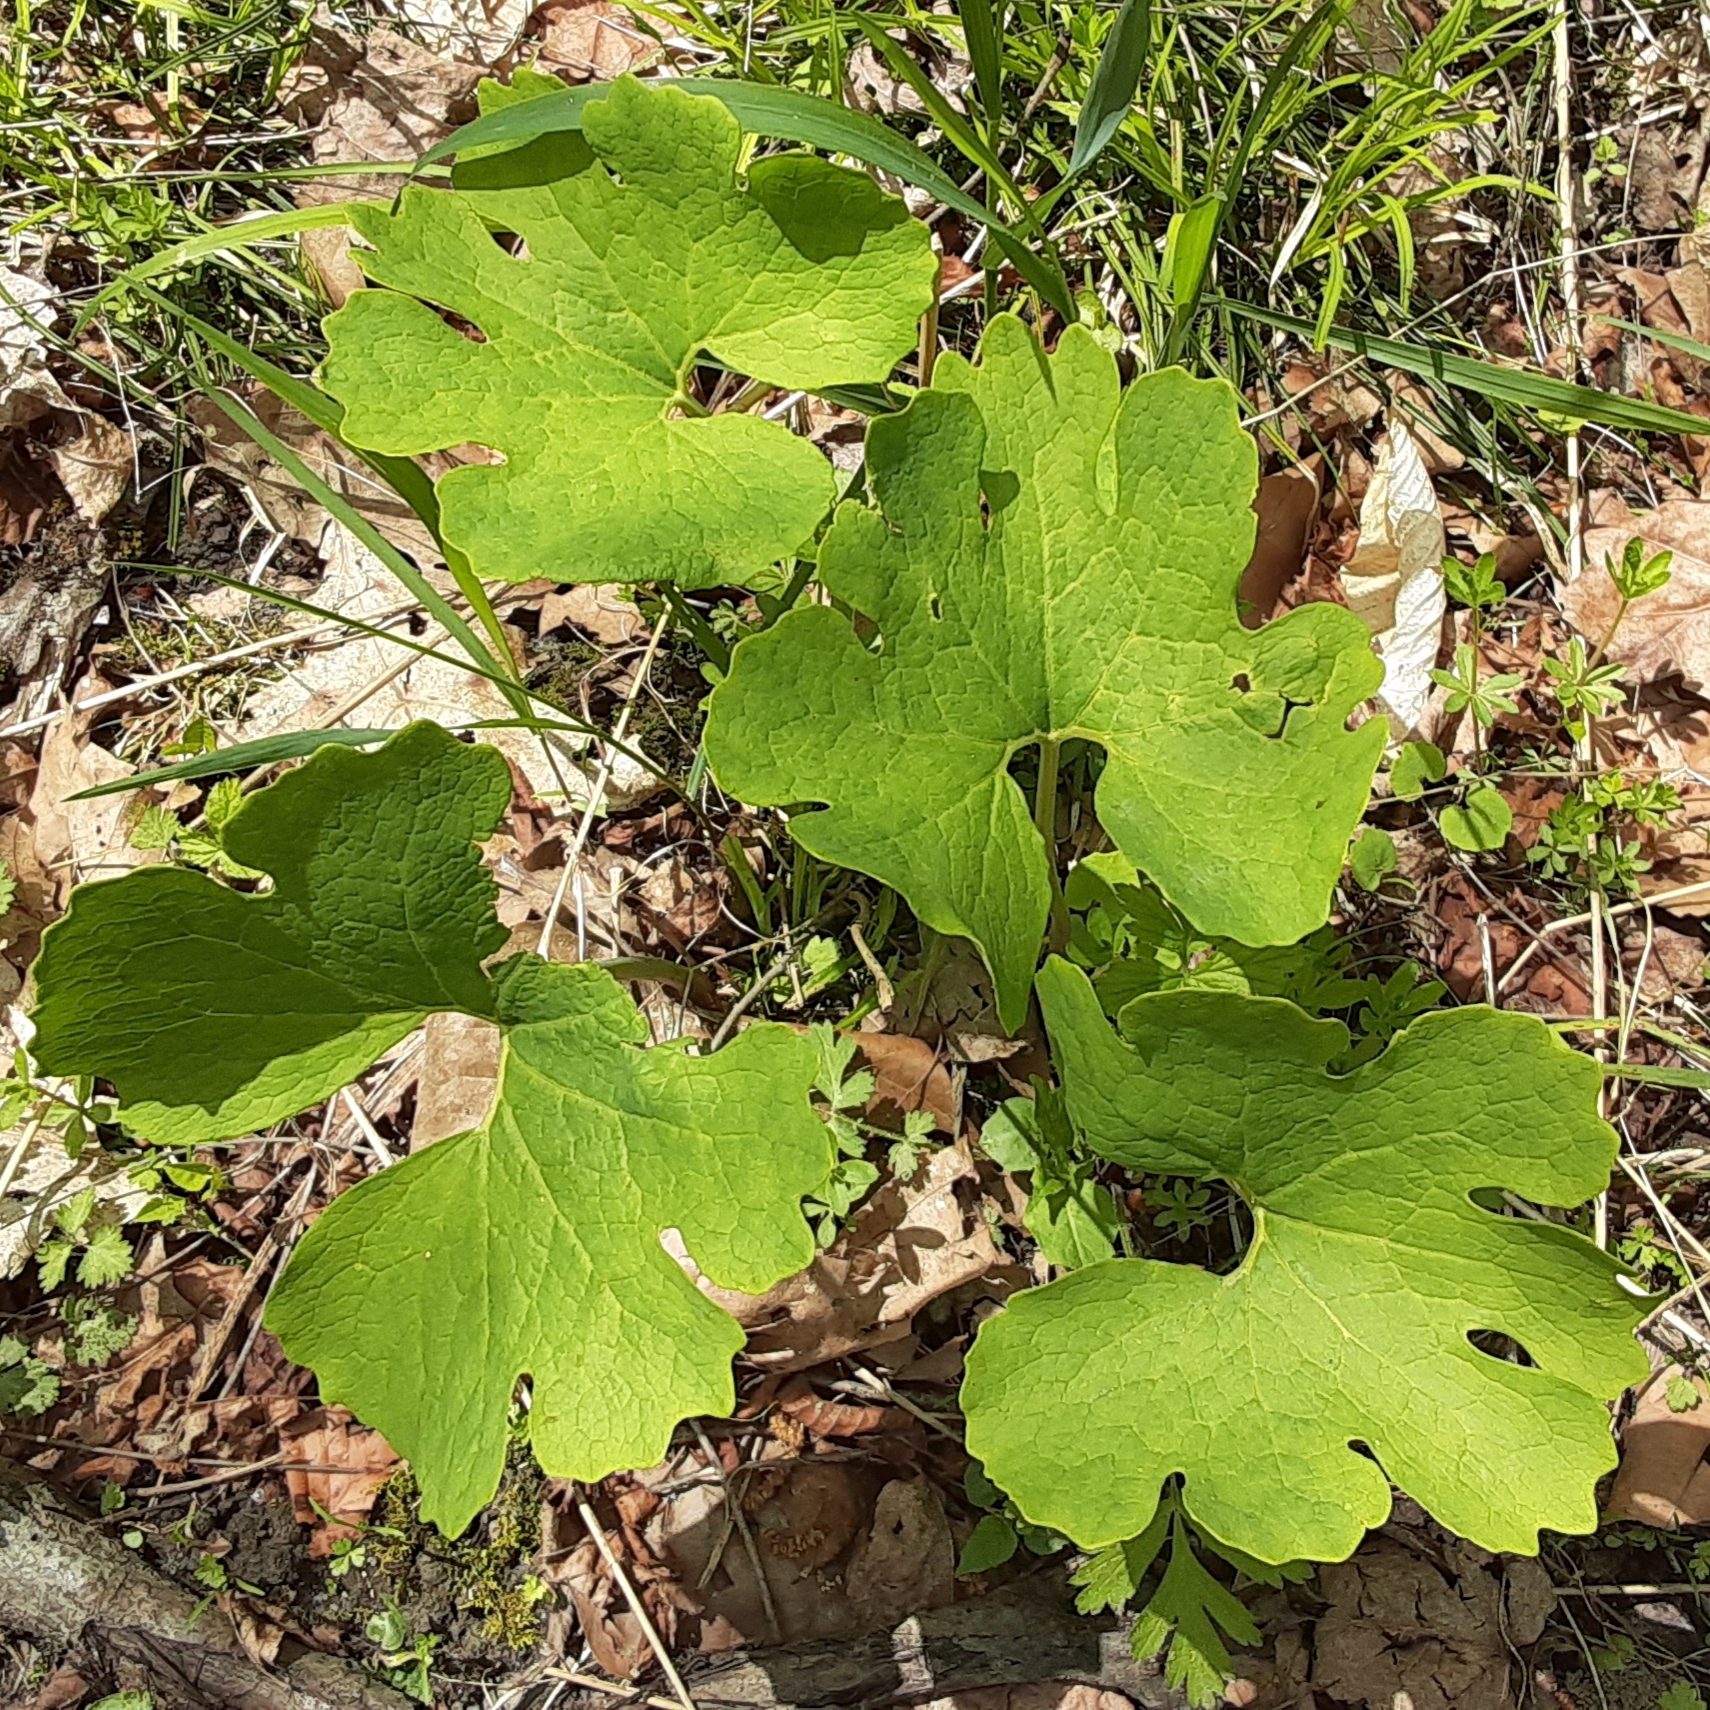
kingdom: Plantae
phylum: Tracheophyta
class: Magnoliopsida
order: Ranunculales
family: Papaveraceae
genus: Sanguinaria
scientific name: Sanguinaria canadensis
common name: Bloodroot
